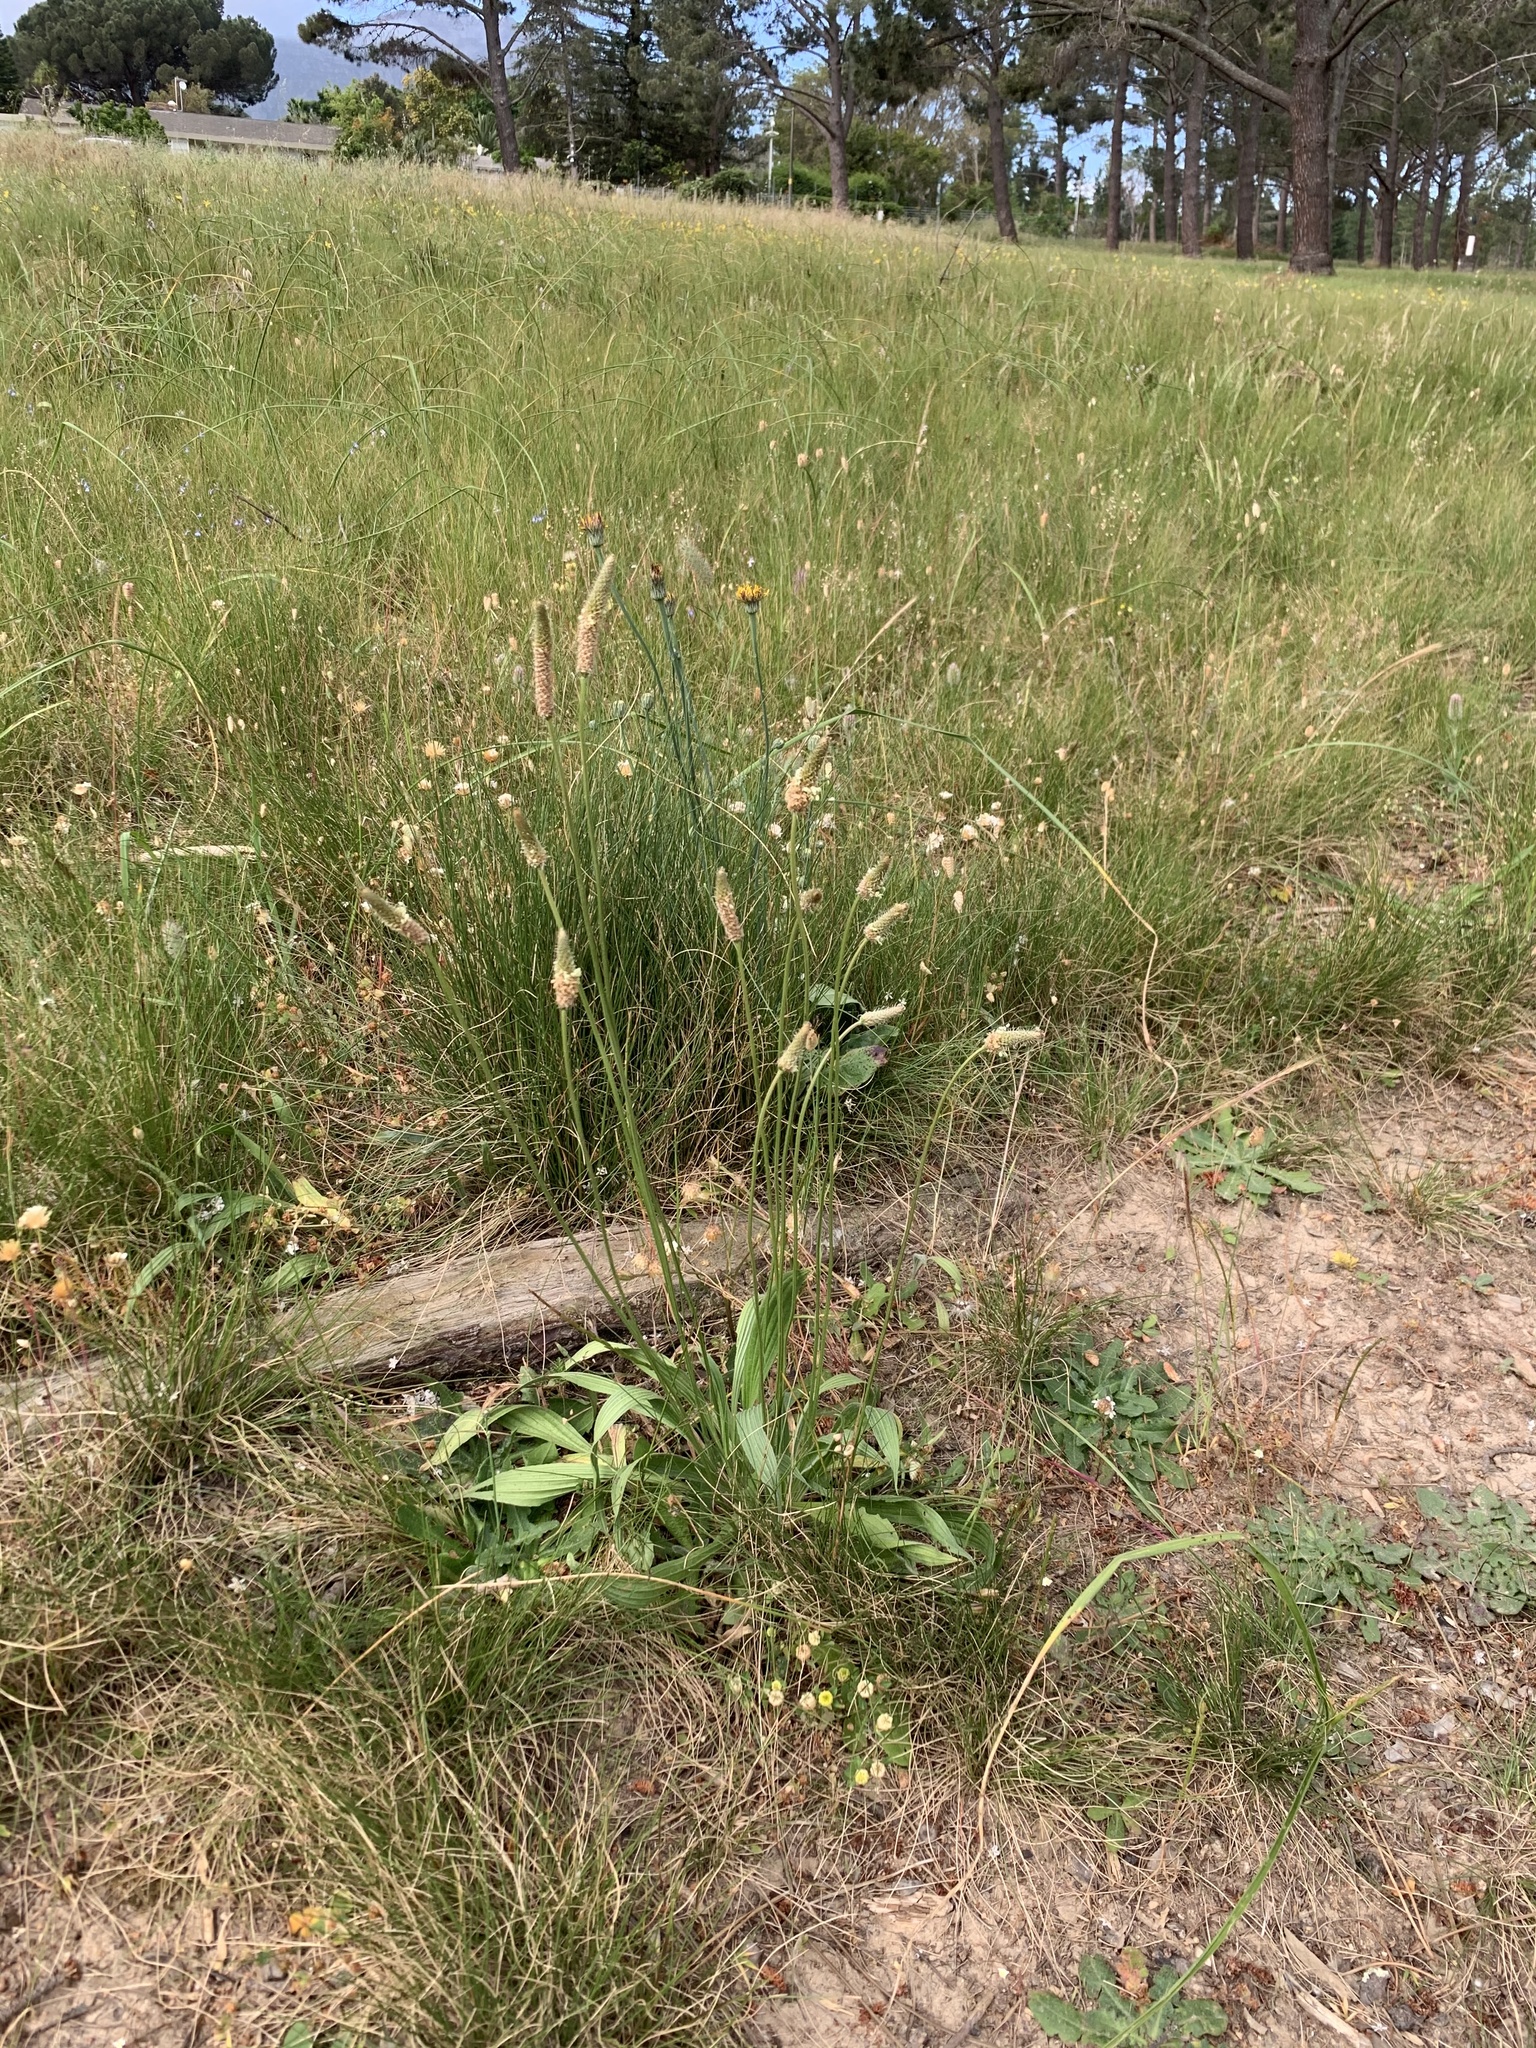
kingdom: Plantae
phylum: Tracheophyta
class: Magnoliopsida
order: Lamiales
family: Plantaginaceae
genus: Plantago
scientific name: Plantago lanceolata
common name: Ribwort plantain
